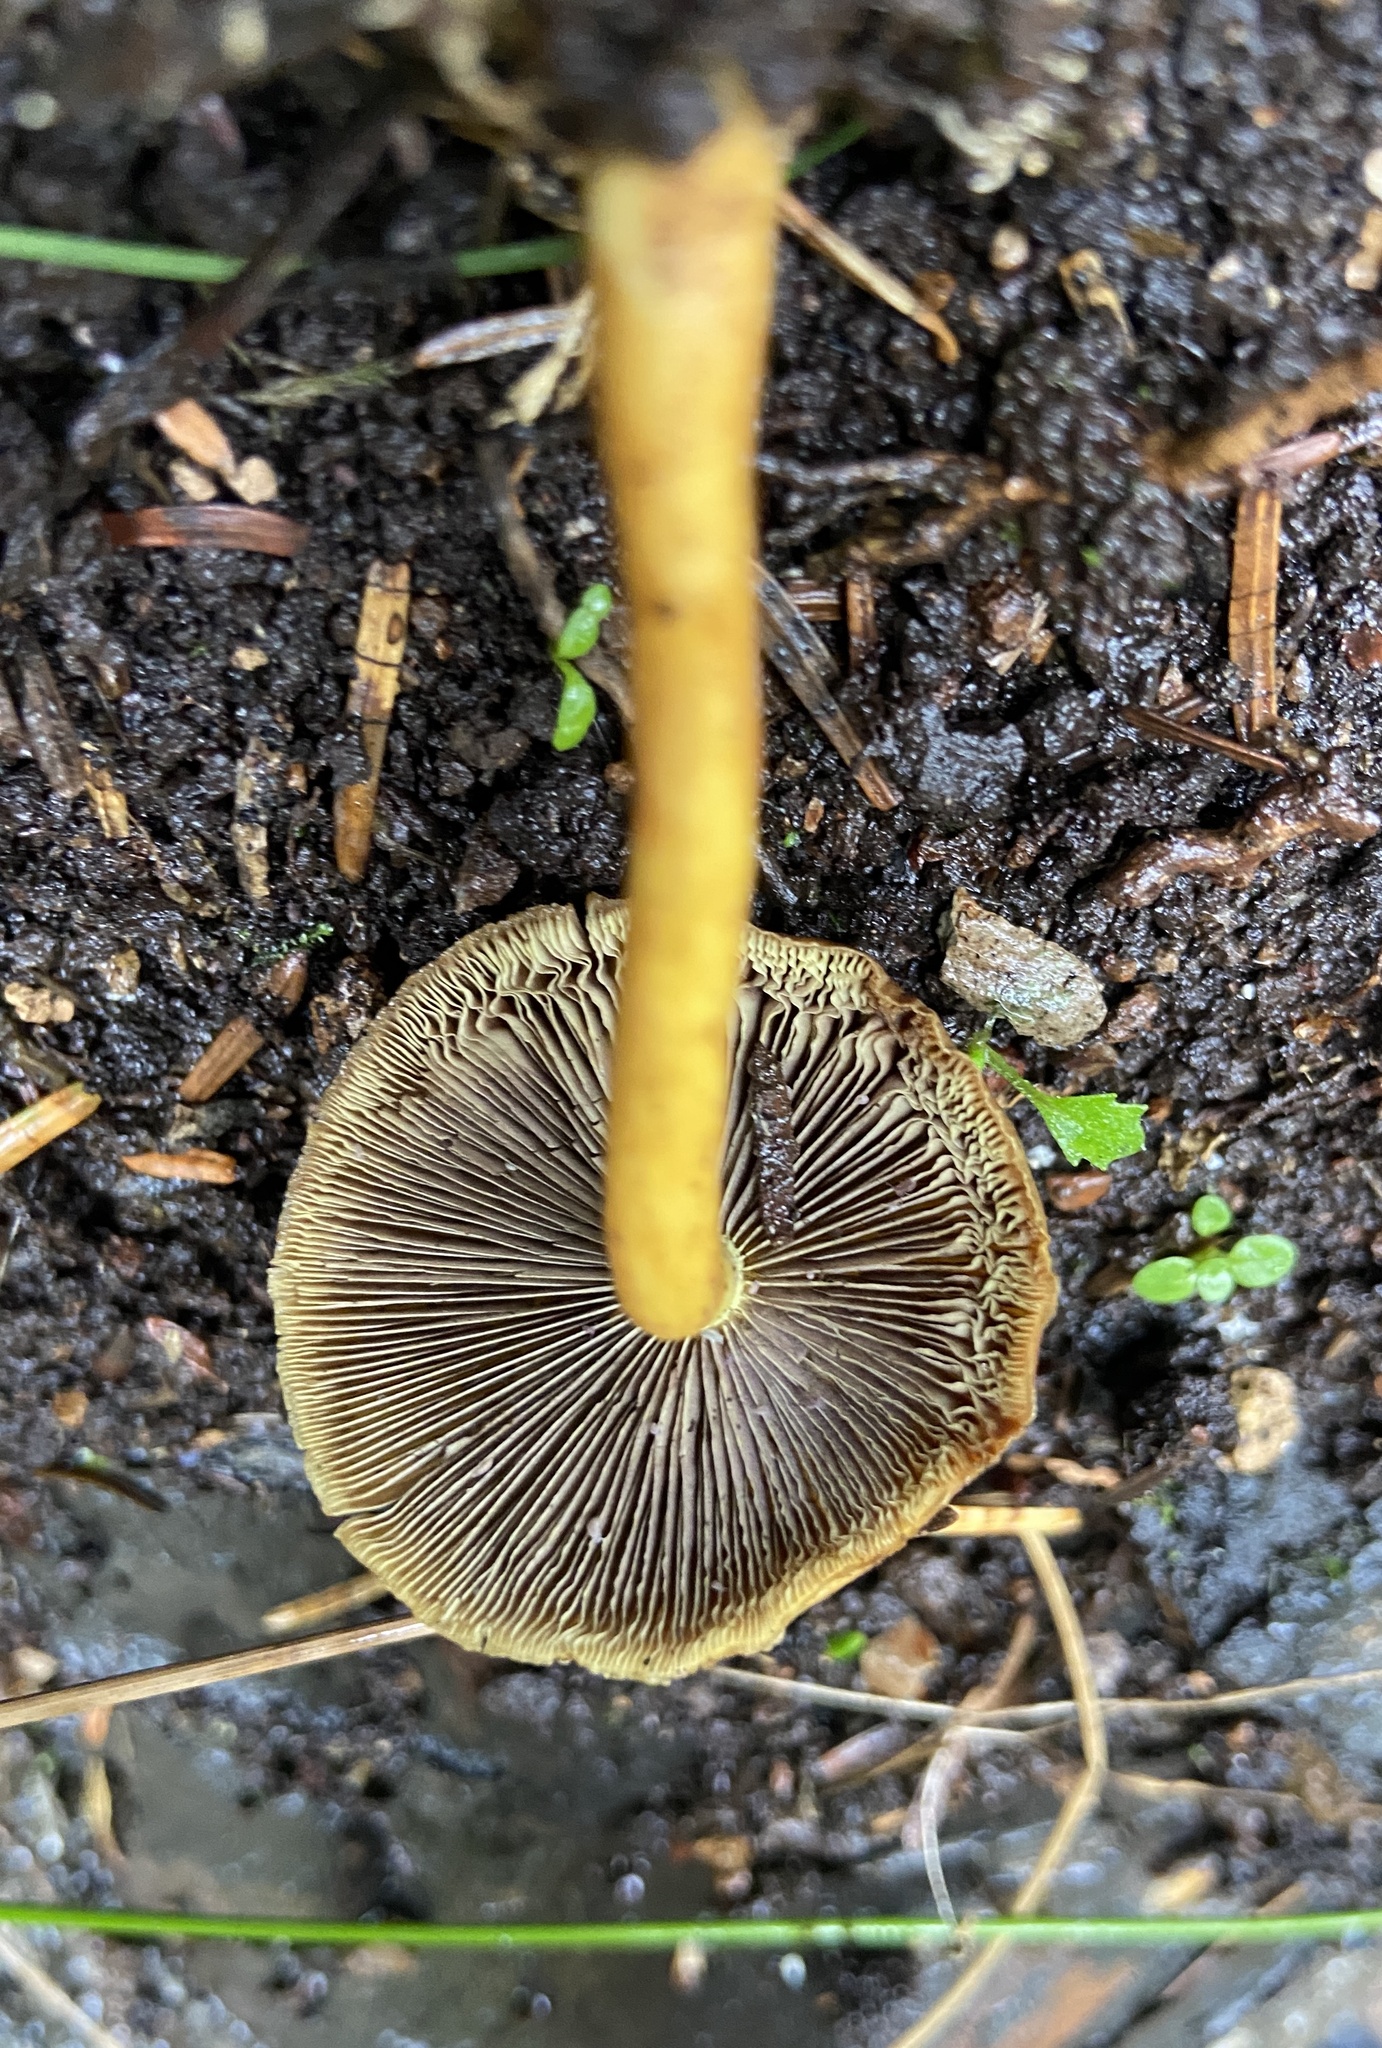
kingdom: Fungi
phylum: Basidiomycota
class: Agaricomycetes
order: Agaricales
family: Strophariaceae
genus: Hypholoma
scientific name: Hypholoma fasciculare
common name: Sulphur tuft
